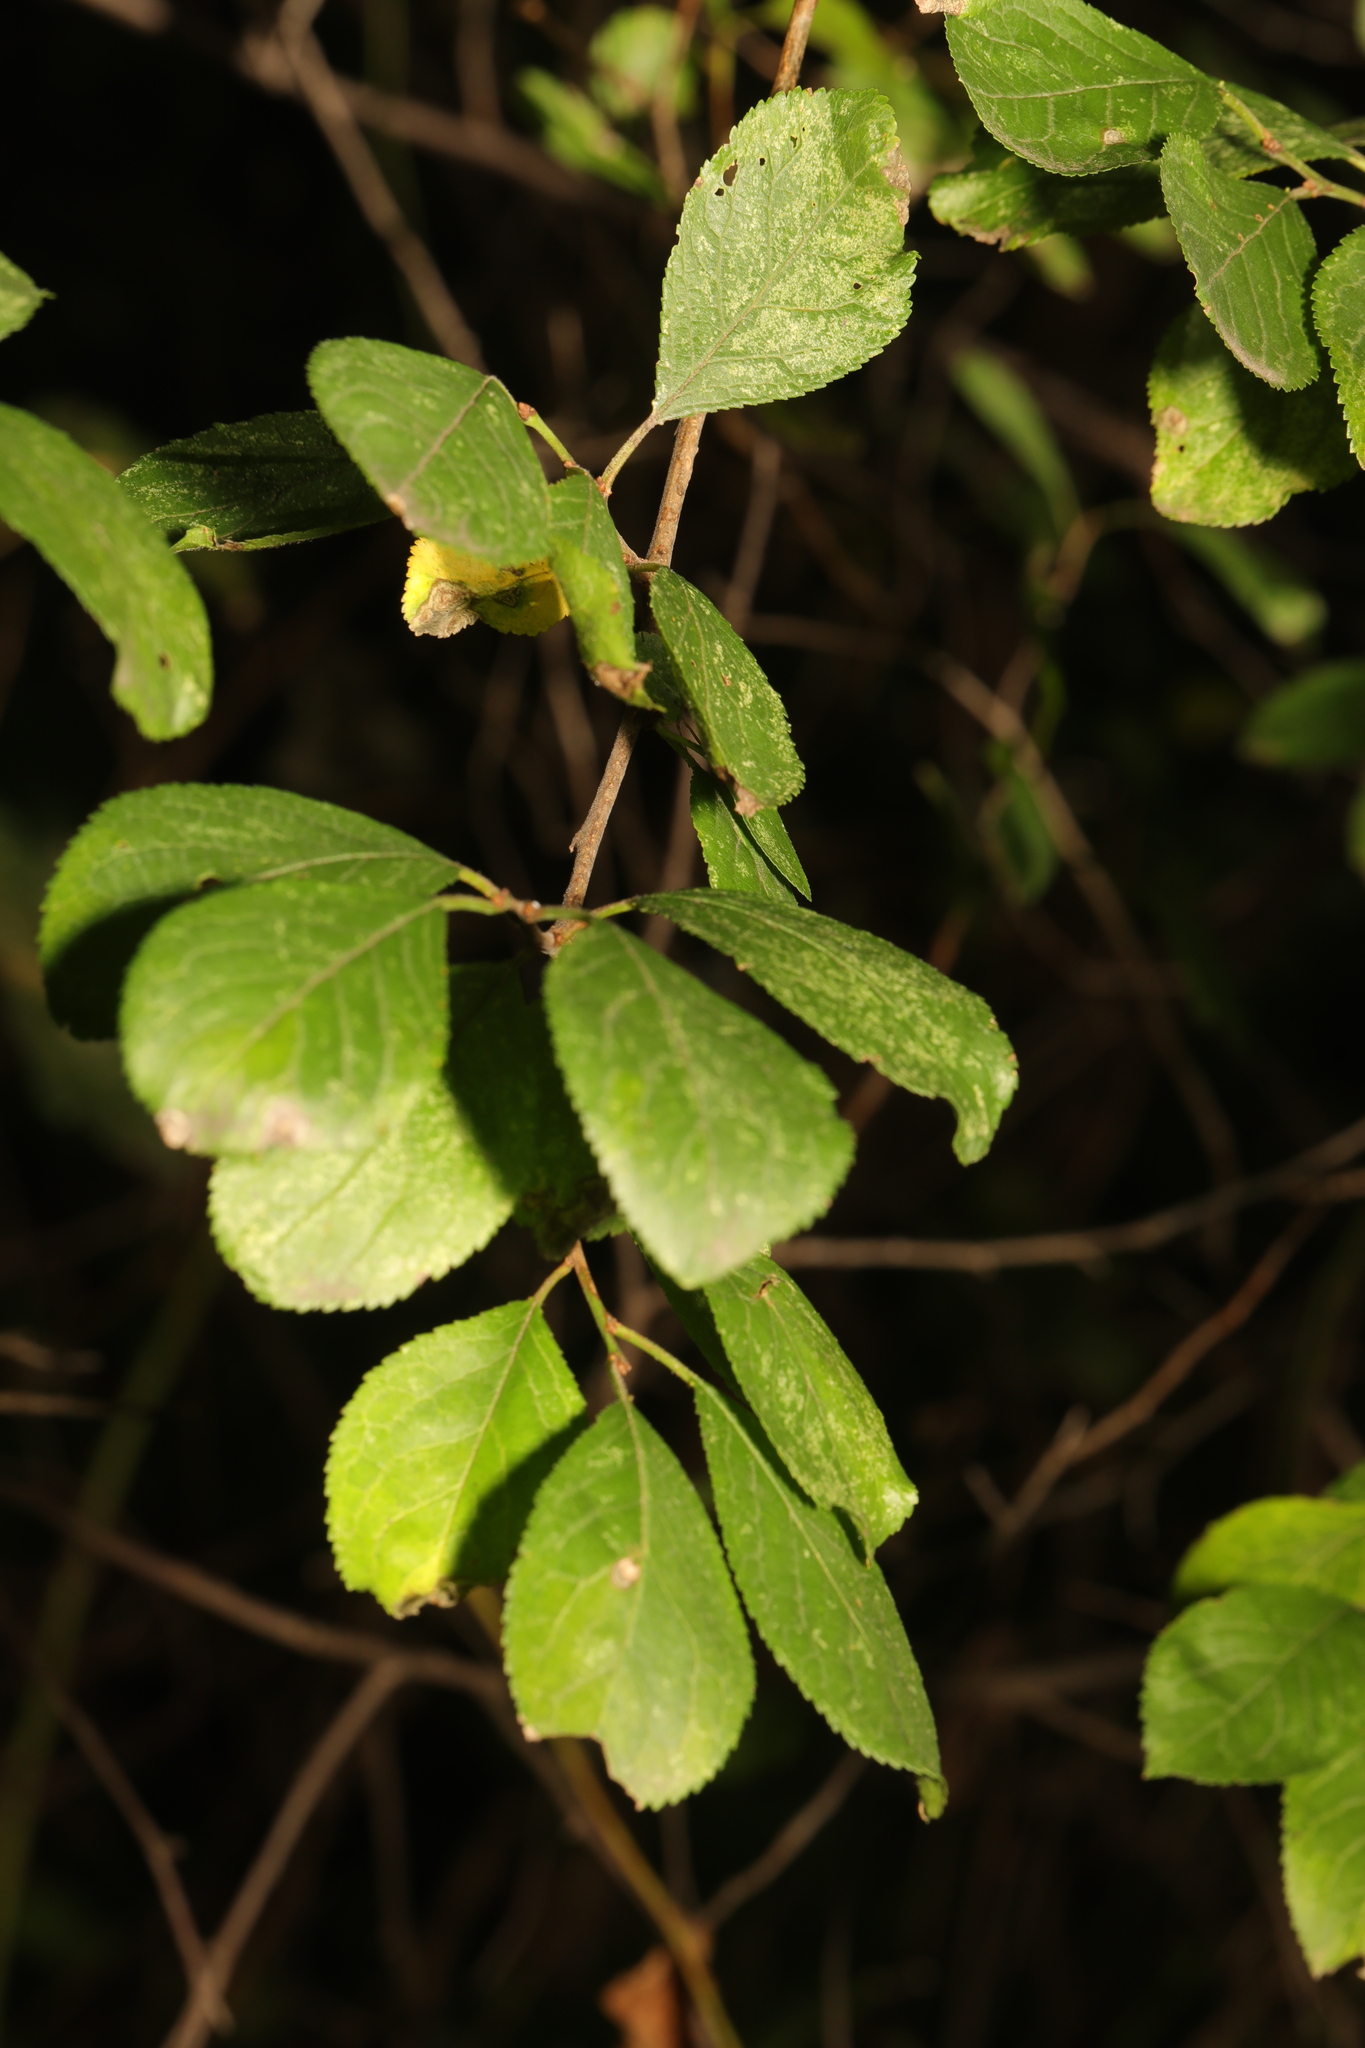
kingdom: Plantae
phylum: Tracheophyta
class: Magnoliopsida
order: Rosales
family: Rosaceae
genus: Prunus
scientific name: Prunus spinosa
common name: Blackthorn
